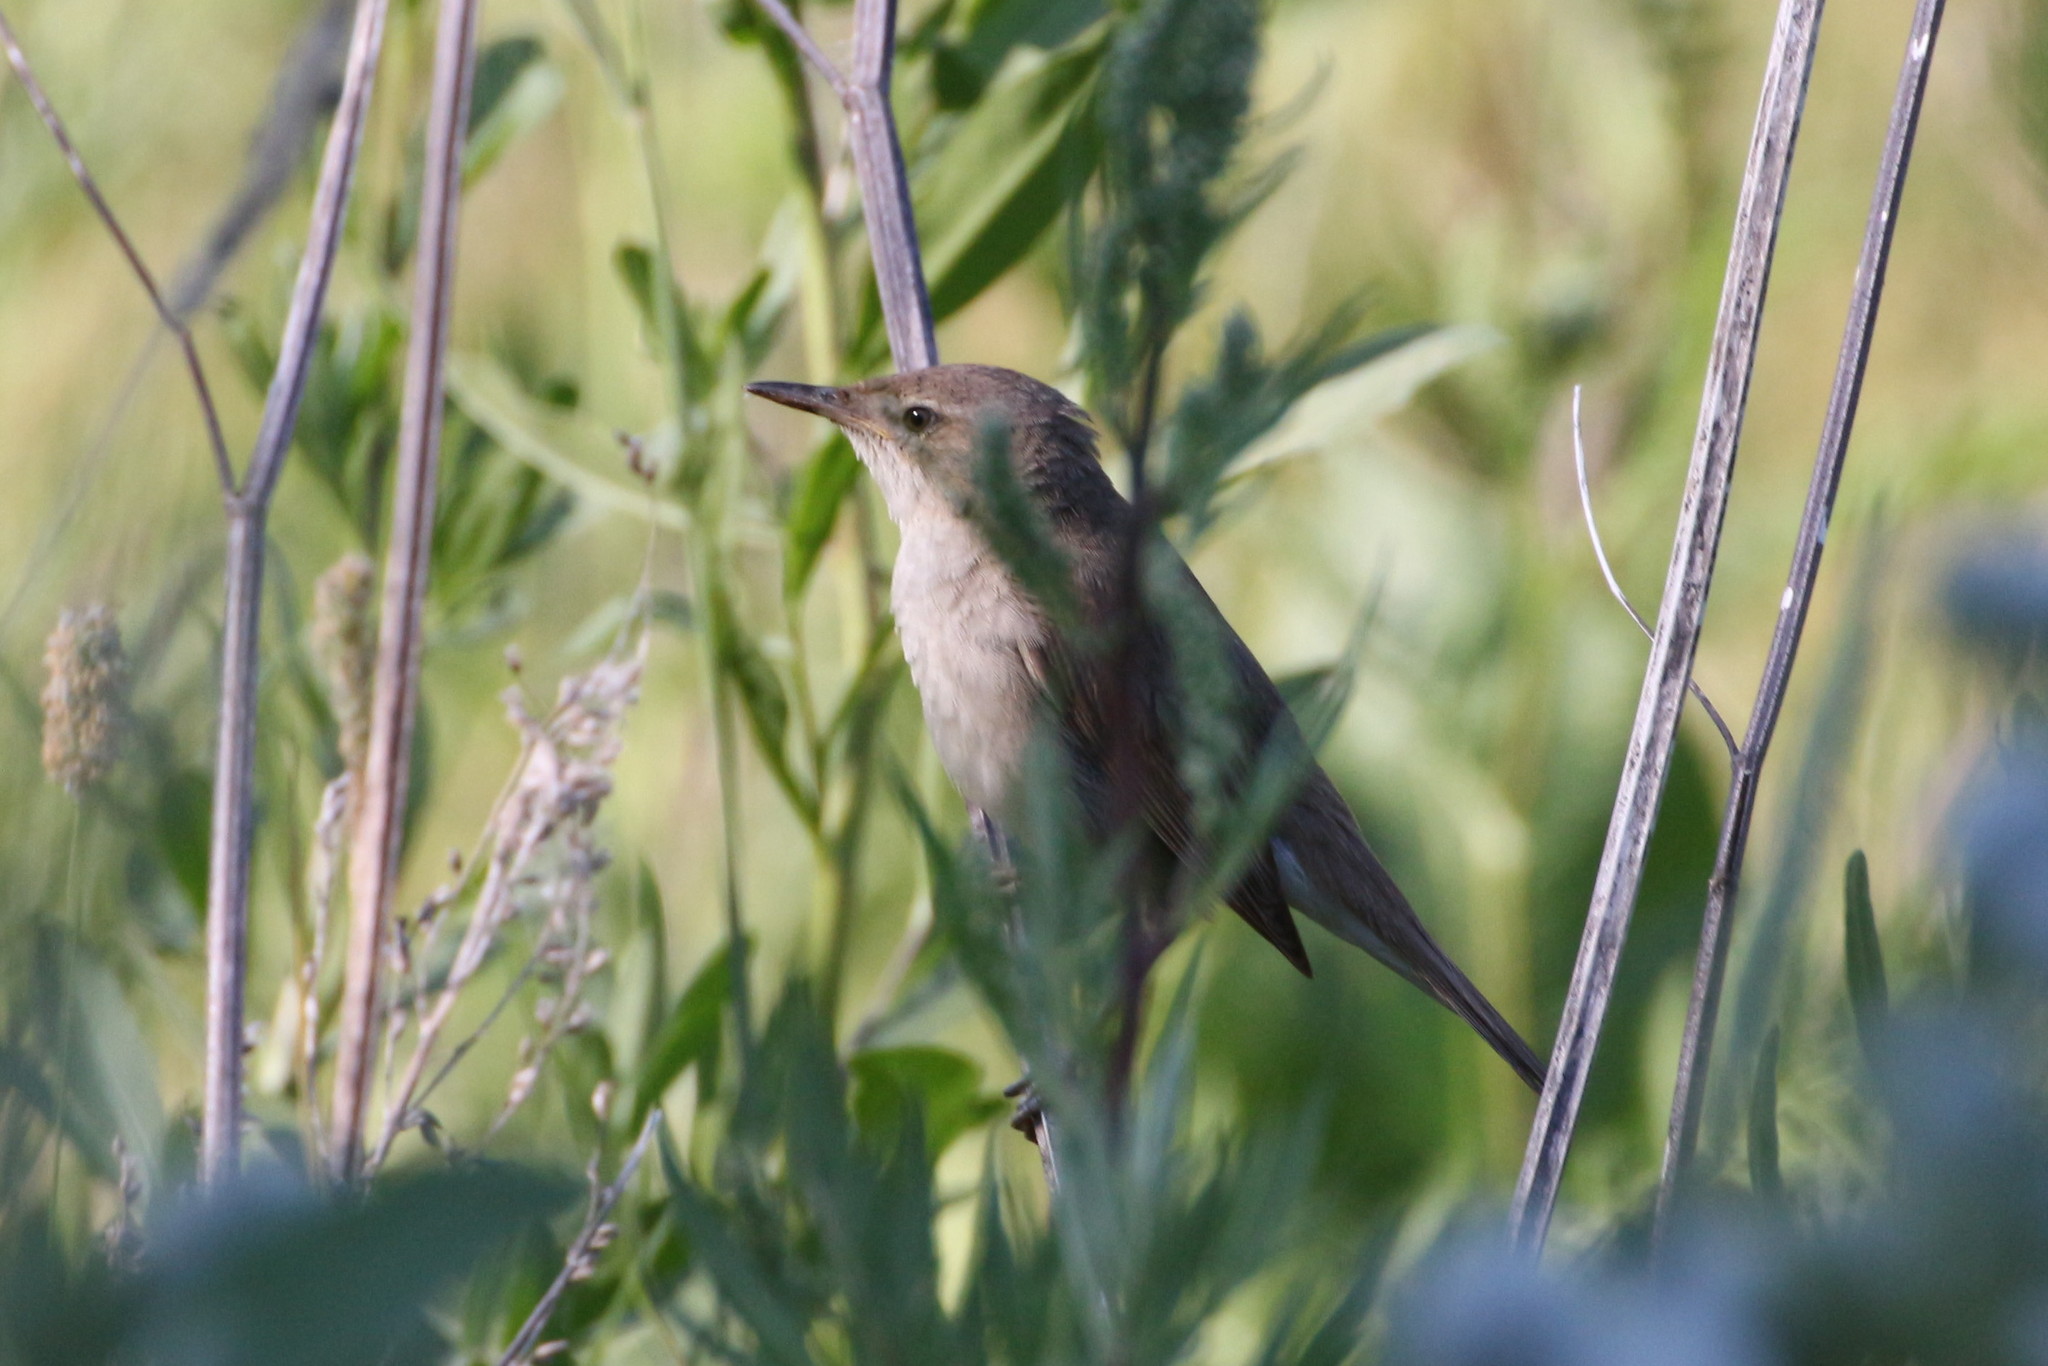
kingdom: Animalia
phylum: Chordata
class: Aves
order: Passeriformes
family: Acrocephalidae
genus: Acrocephalus
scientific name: Acrocephalus dumetorum
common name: Blyth's reed warbler
